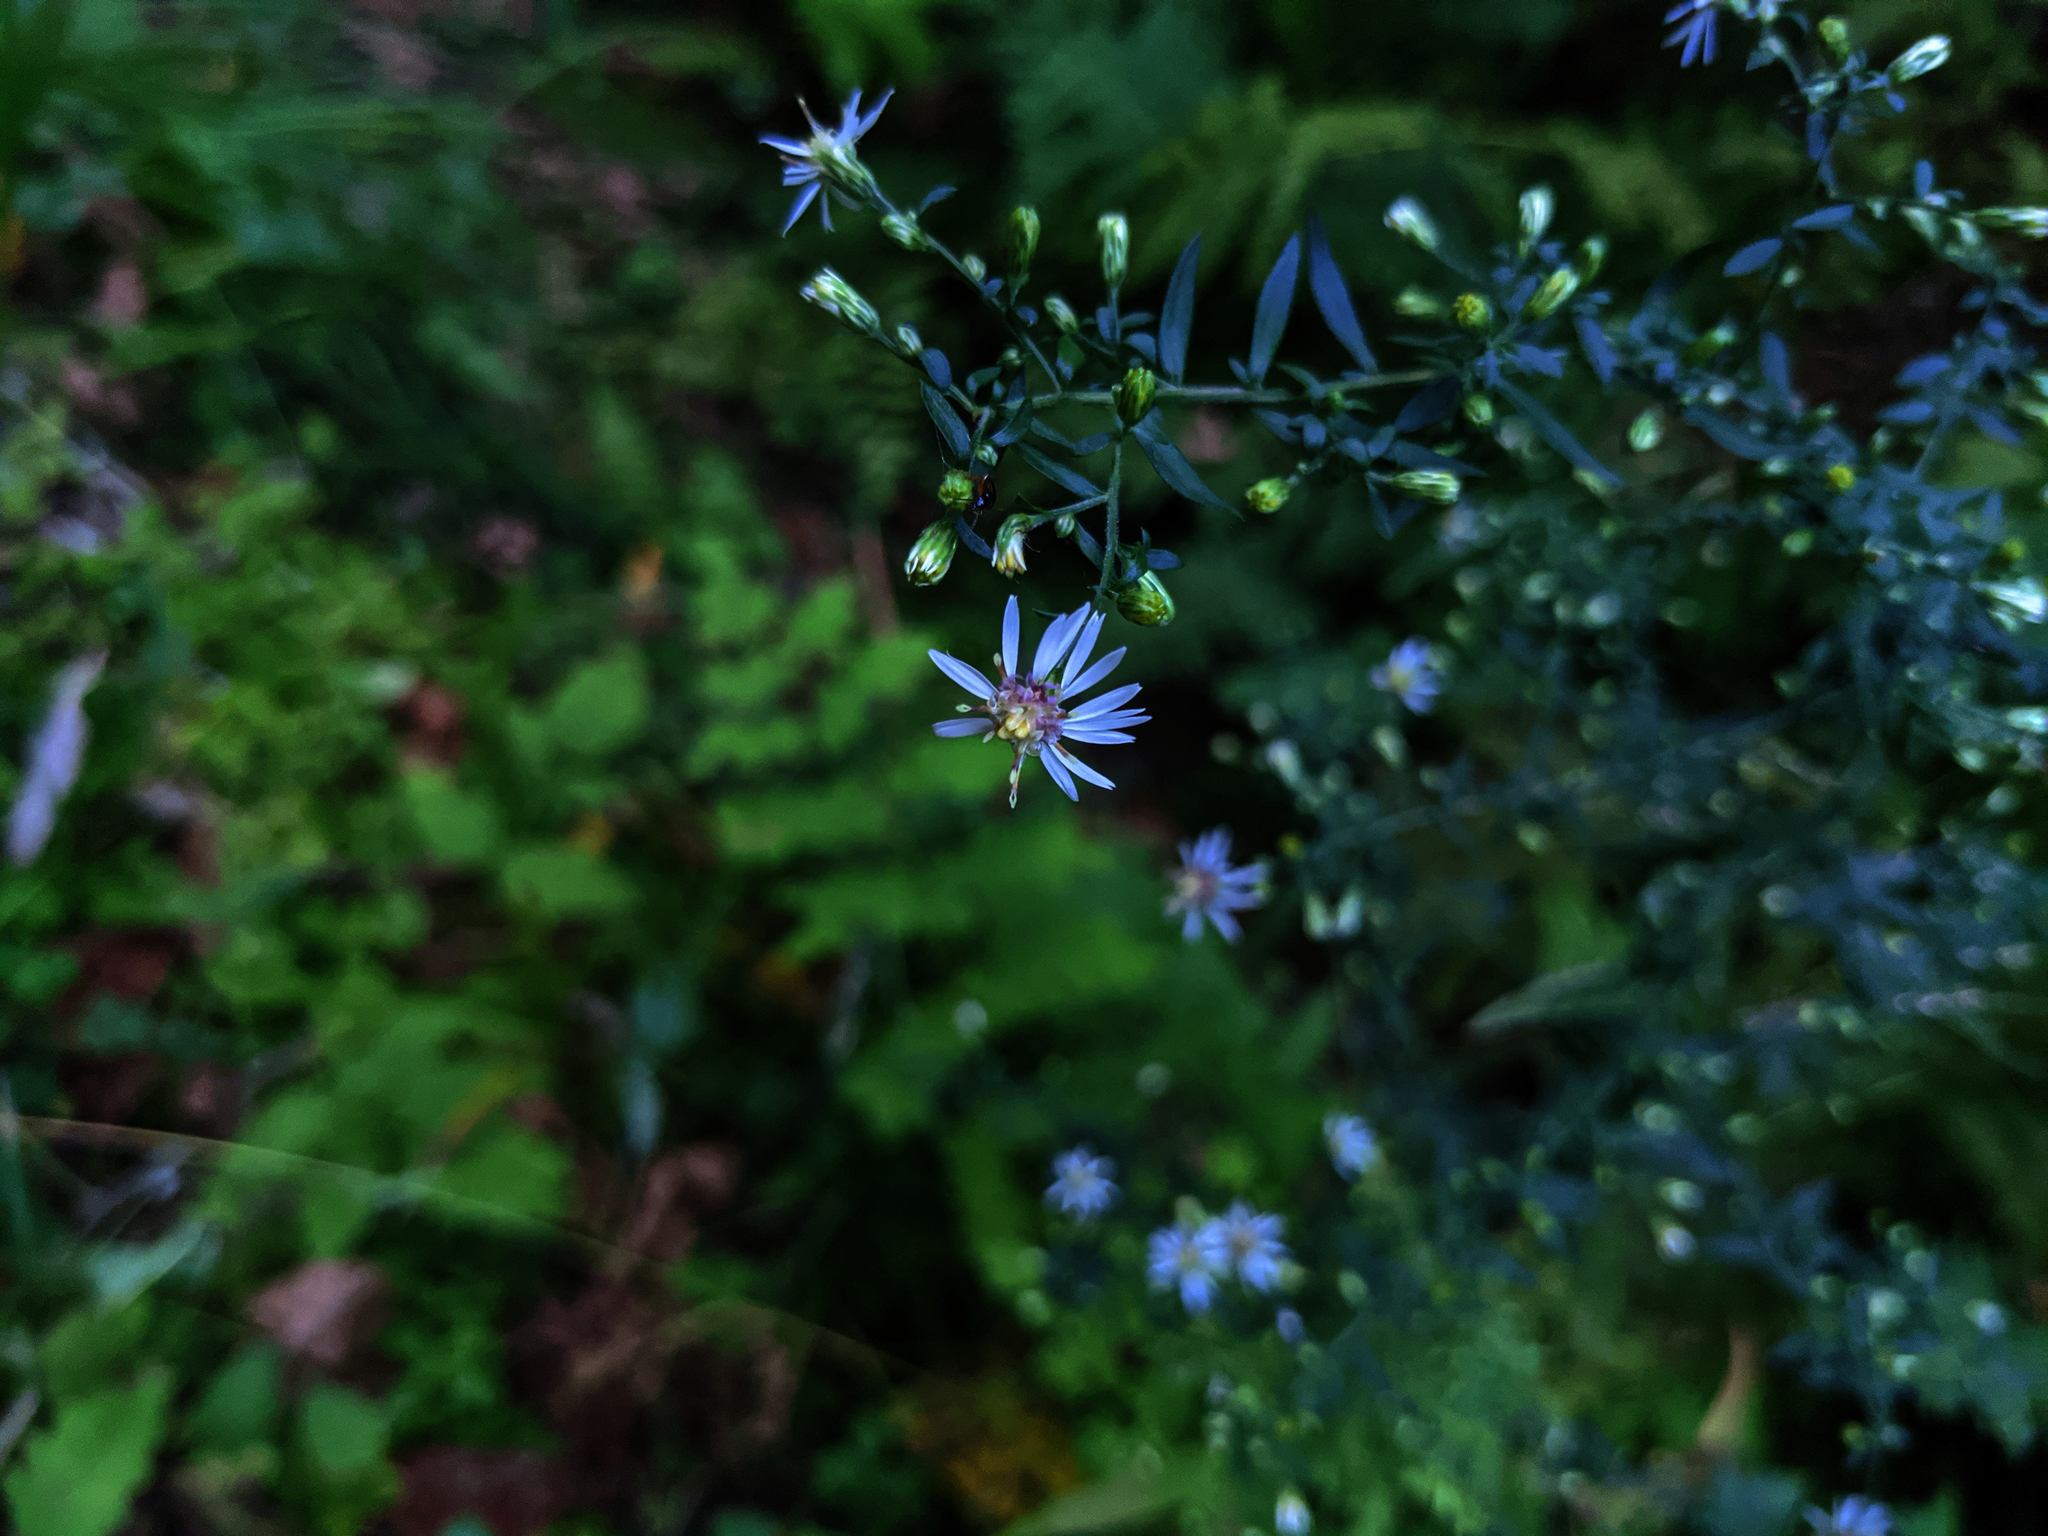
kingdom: Plantae
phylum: Tracheophyta
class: Magnoliopsida
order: Asterales
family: Asteraceae
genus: Symphyotrichum
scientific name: Symphyotrichum lateriflorum
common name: Calico aster
